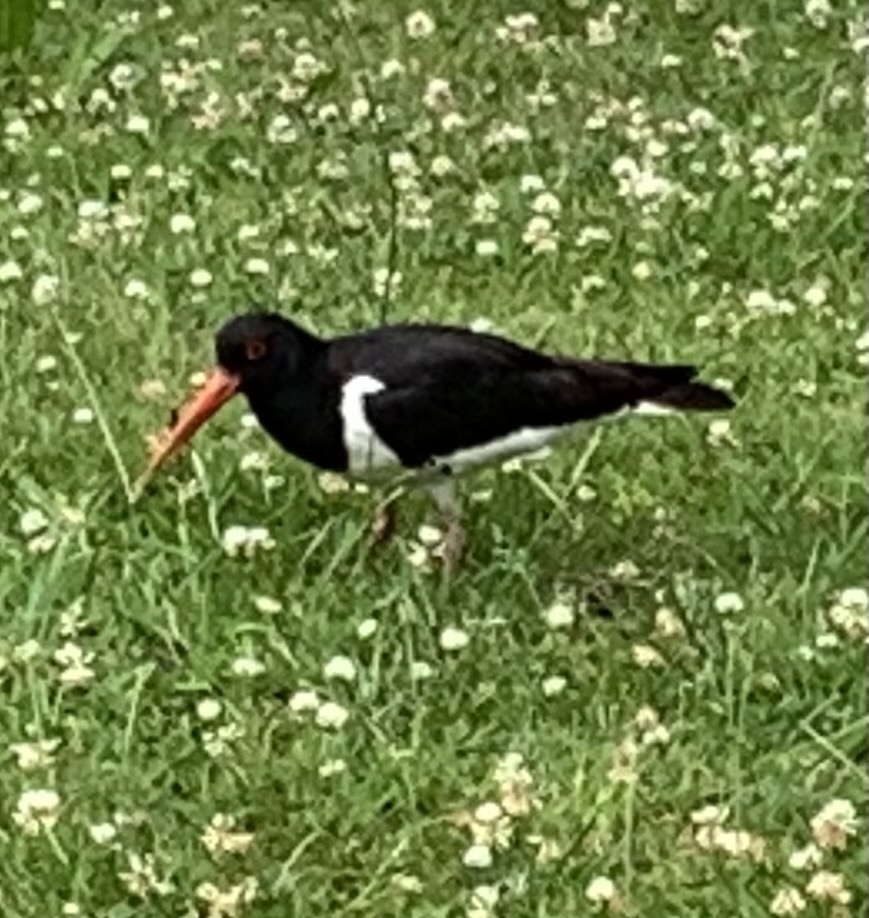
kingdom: Animalia
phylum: Chordata
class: Aves
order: Charadriiformes
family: Haematopodidae
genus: Haematopus
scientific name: Haematopus ostralegus
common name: Eurasian oystercatcher
